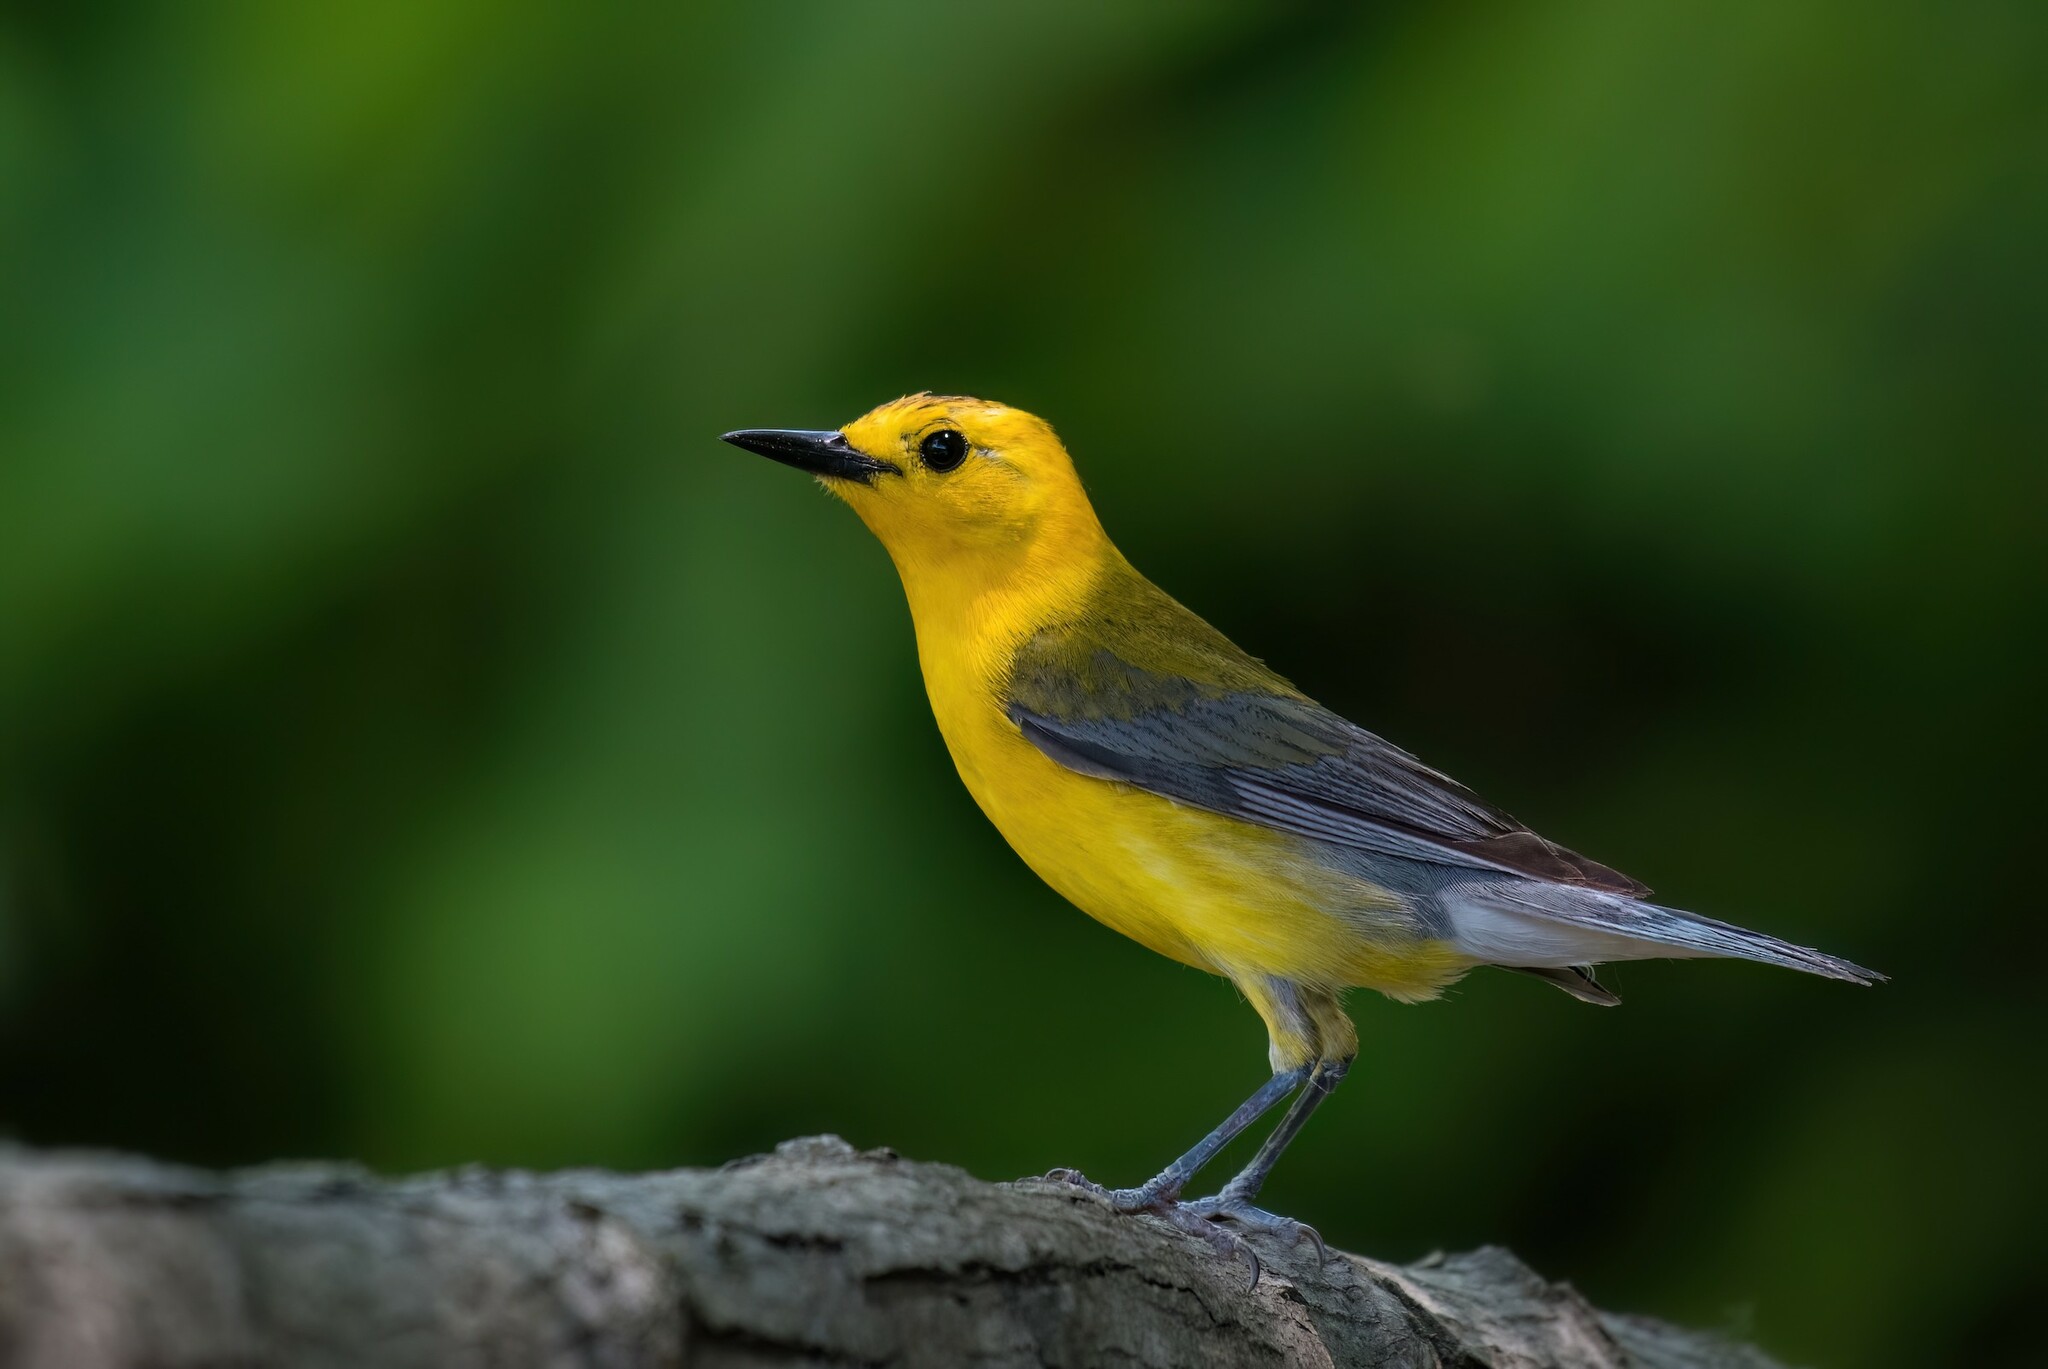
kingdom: Animalia
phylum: Chordata
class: Aves
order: Passeriformes
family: Parulidae
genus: Protonotaria
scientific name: Protonotaria citrea
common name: Prothonotary warbler
